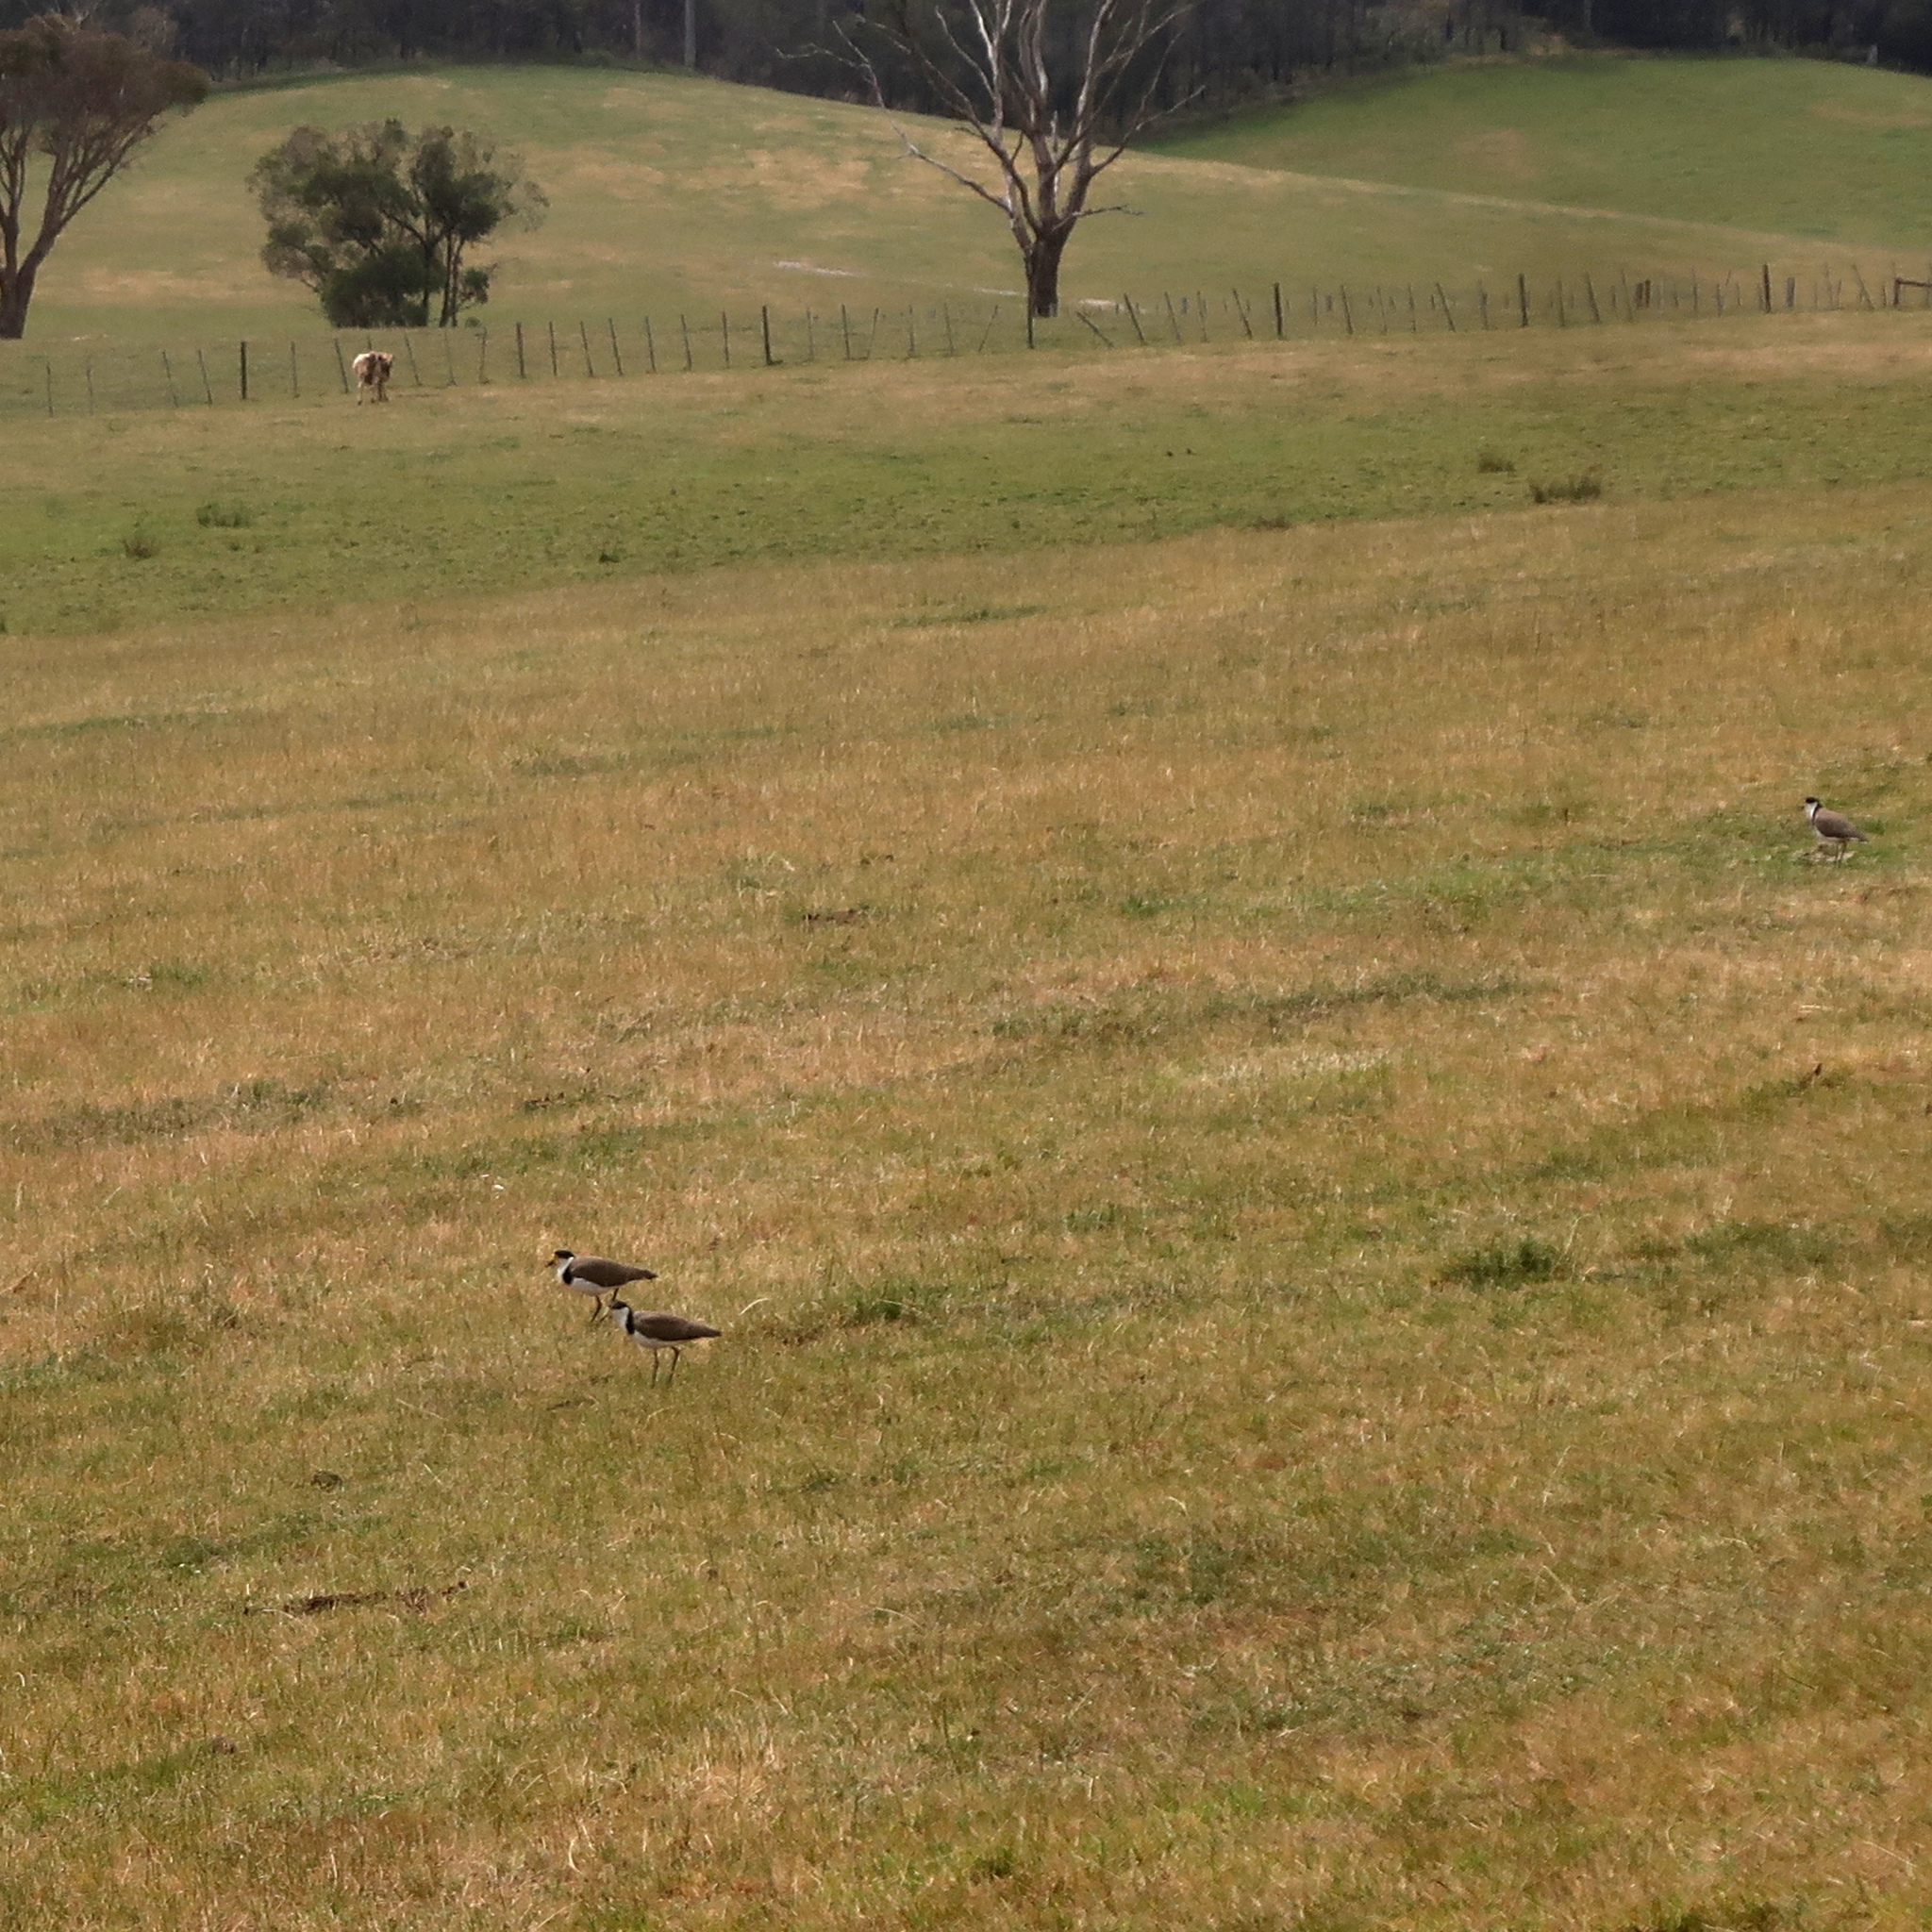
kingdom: Animalia
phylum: Chordata
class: Aves
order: Charadriiformes
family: Charadriidae
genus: Vanellus
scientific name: Vanellus miles
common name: Masked lapwing
